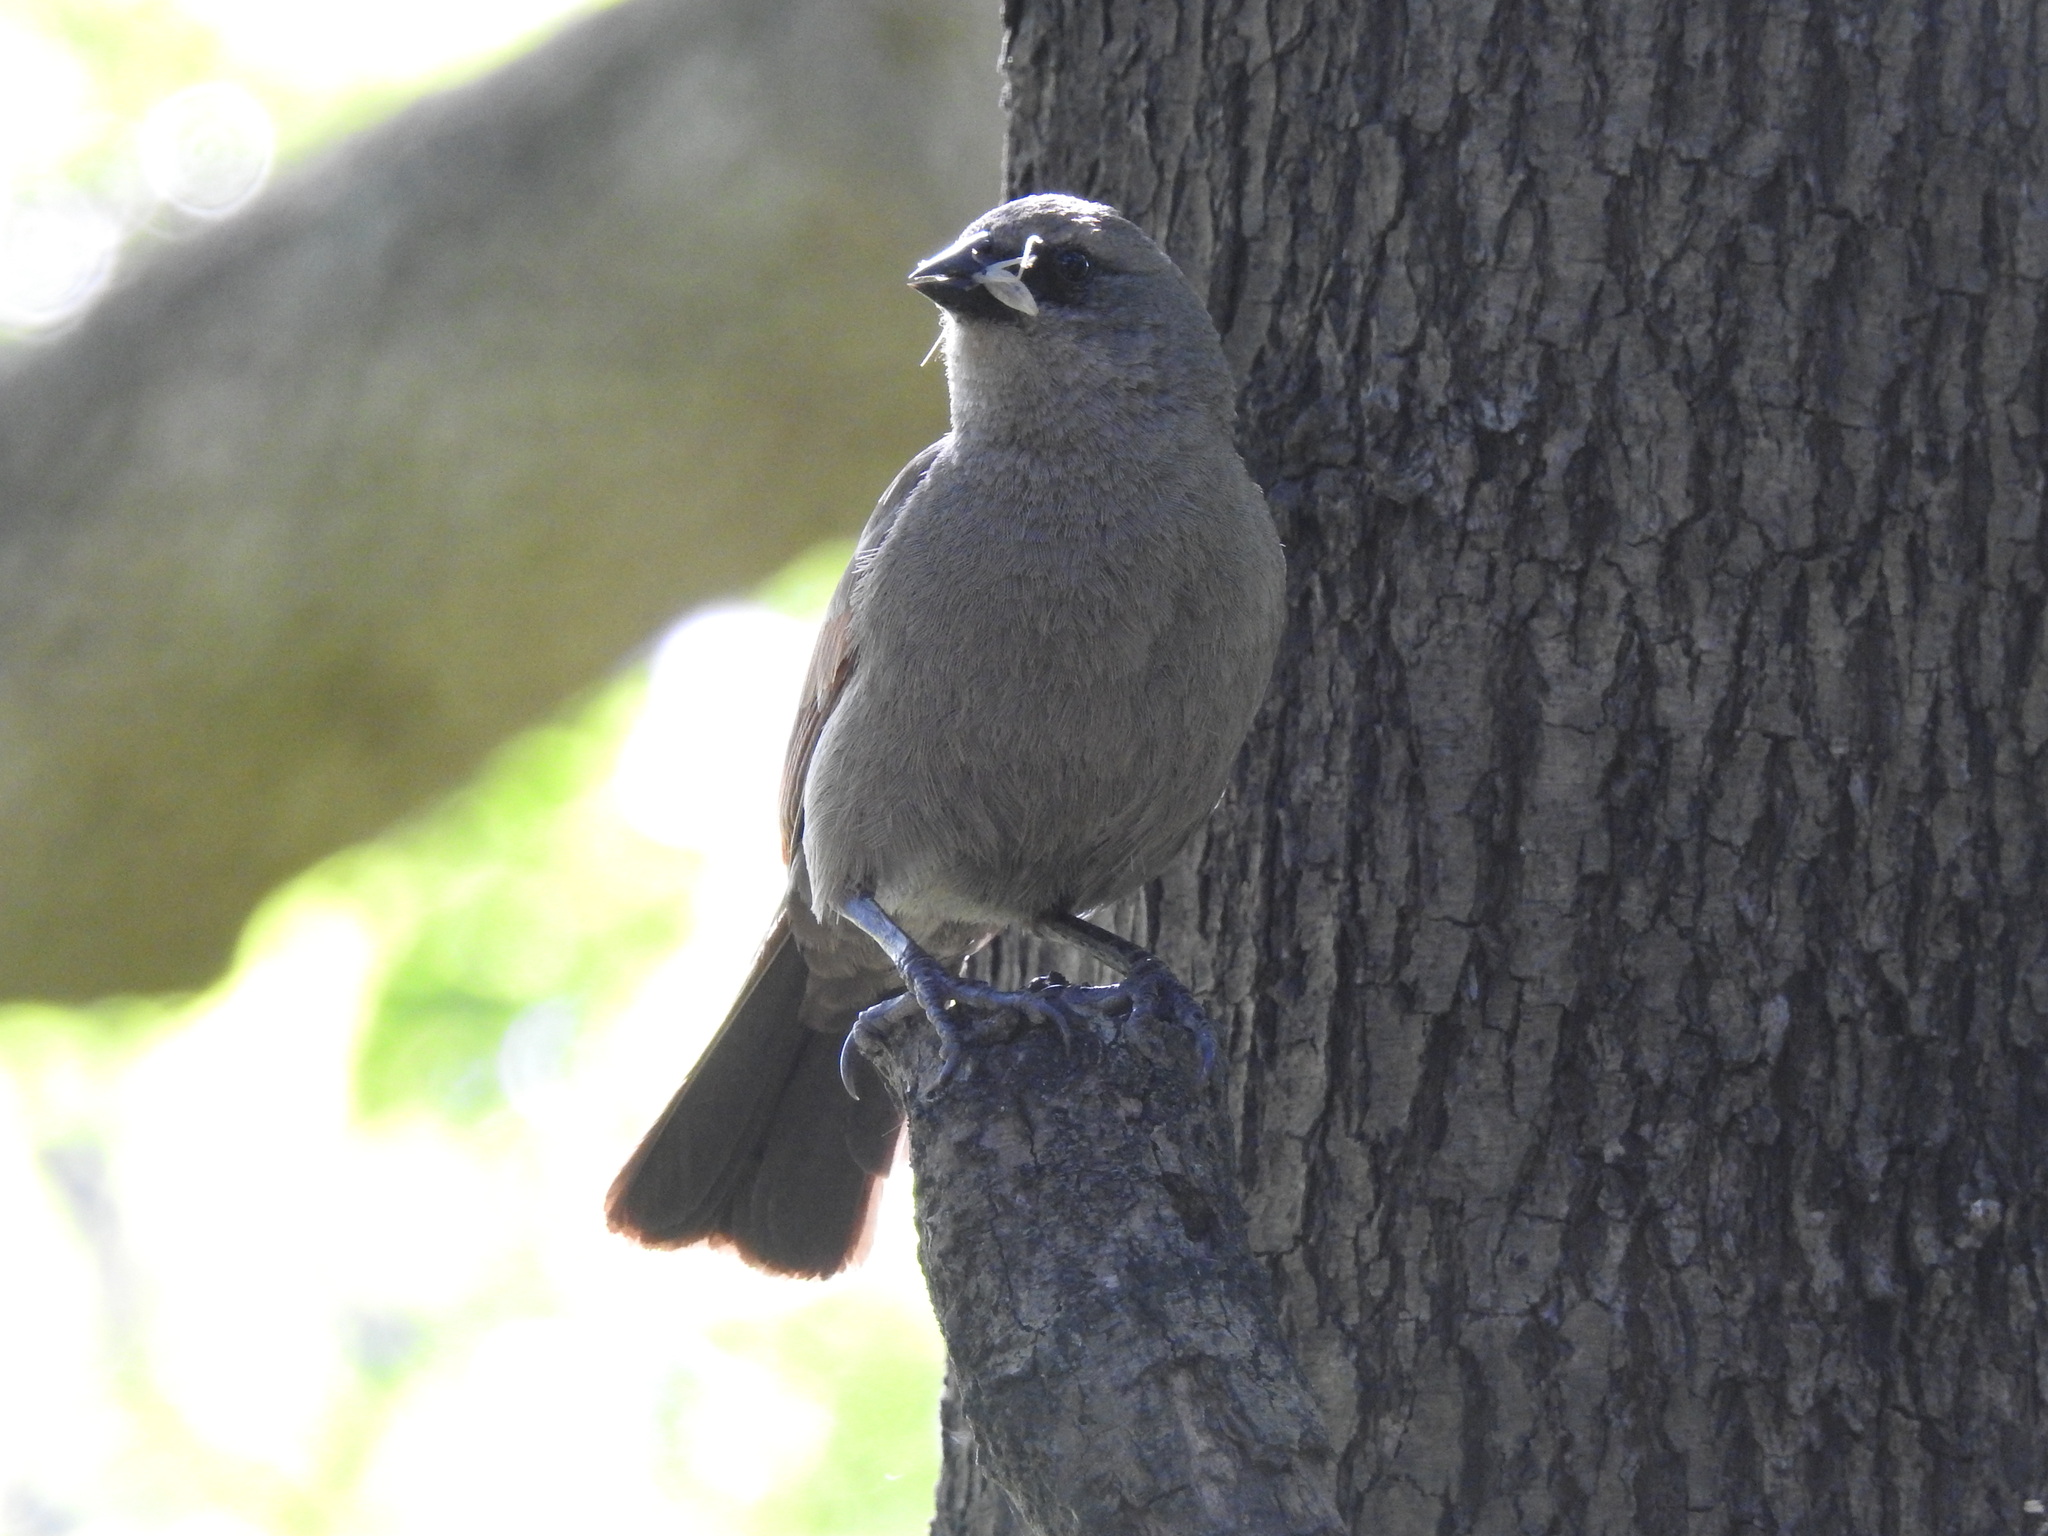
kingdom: Animalia
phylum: Chordata
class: Aves
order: Passeriformes
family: Icteridae
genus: Agelaioides
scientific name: Agelaioides badius
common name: Baywing
